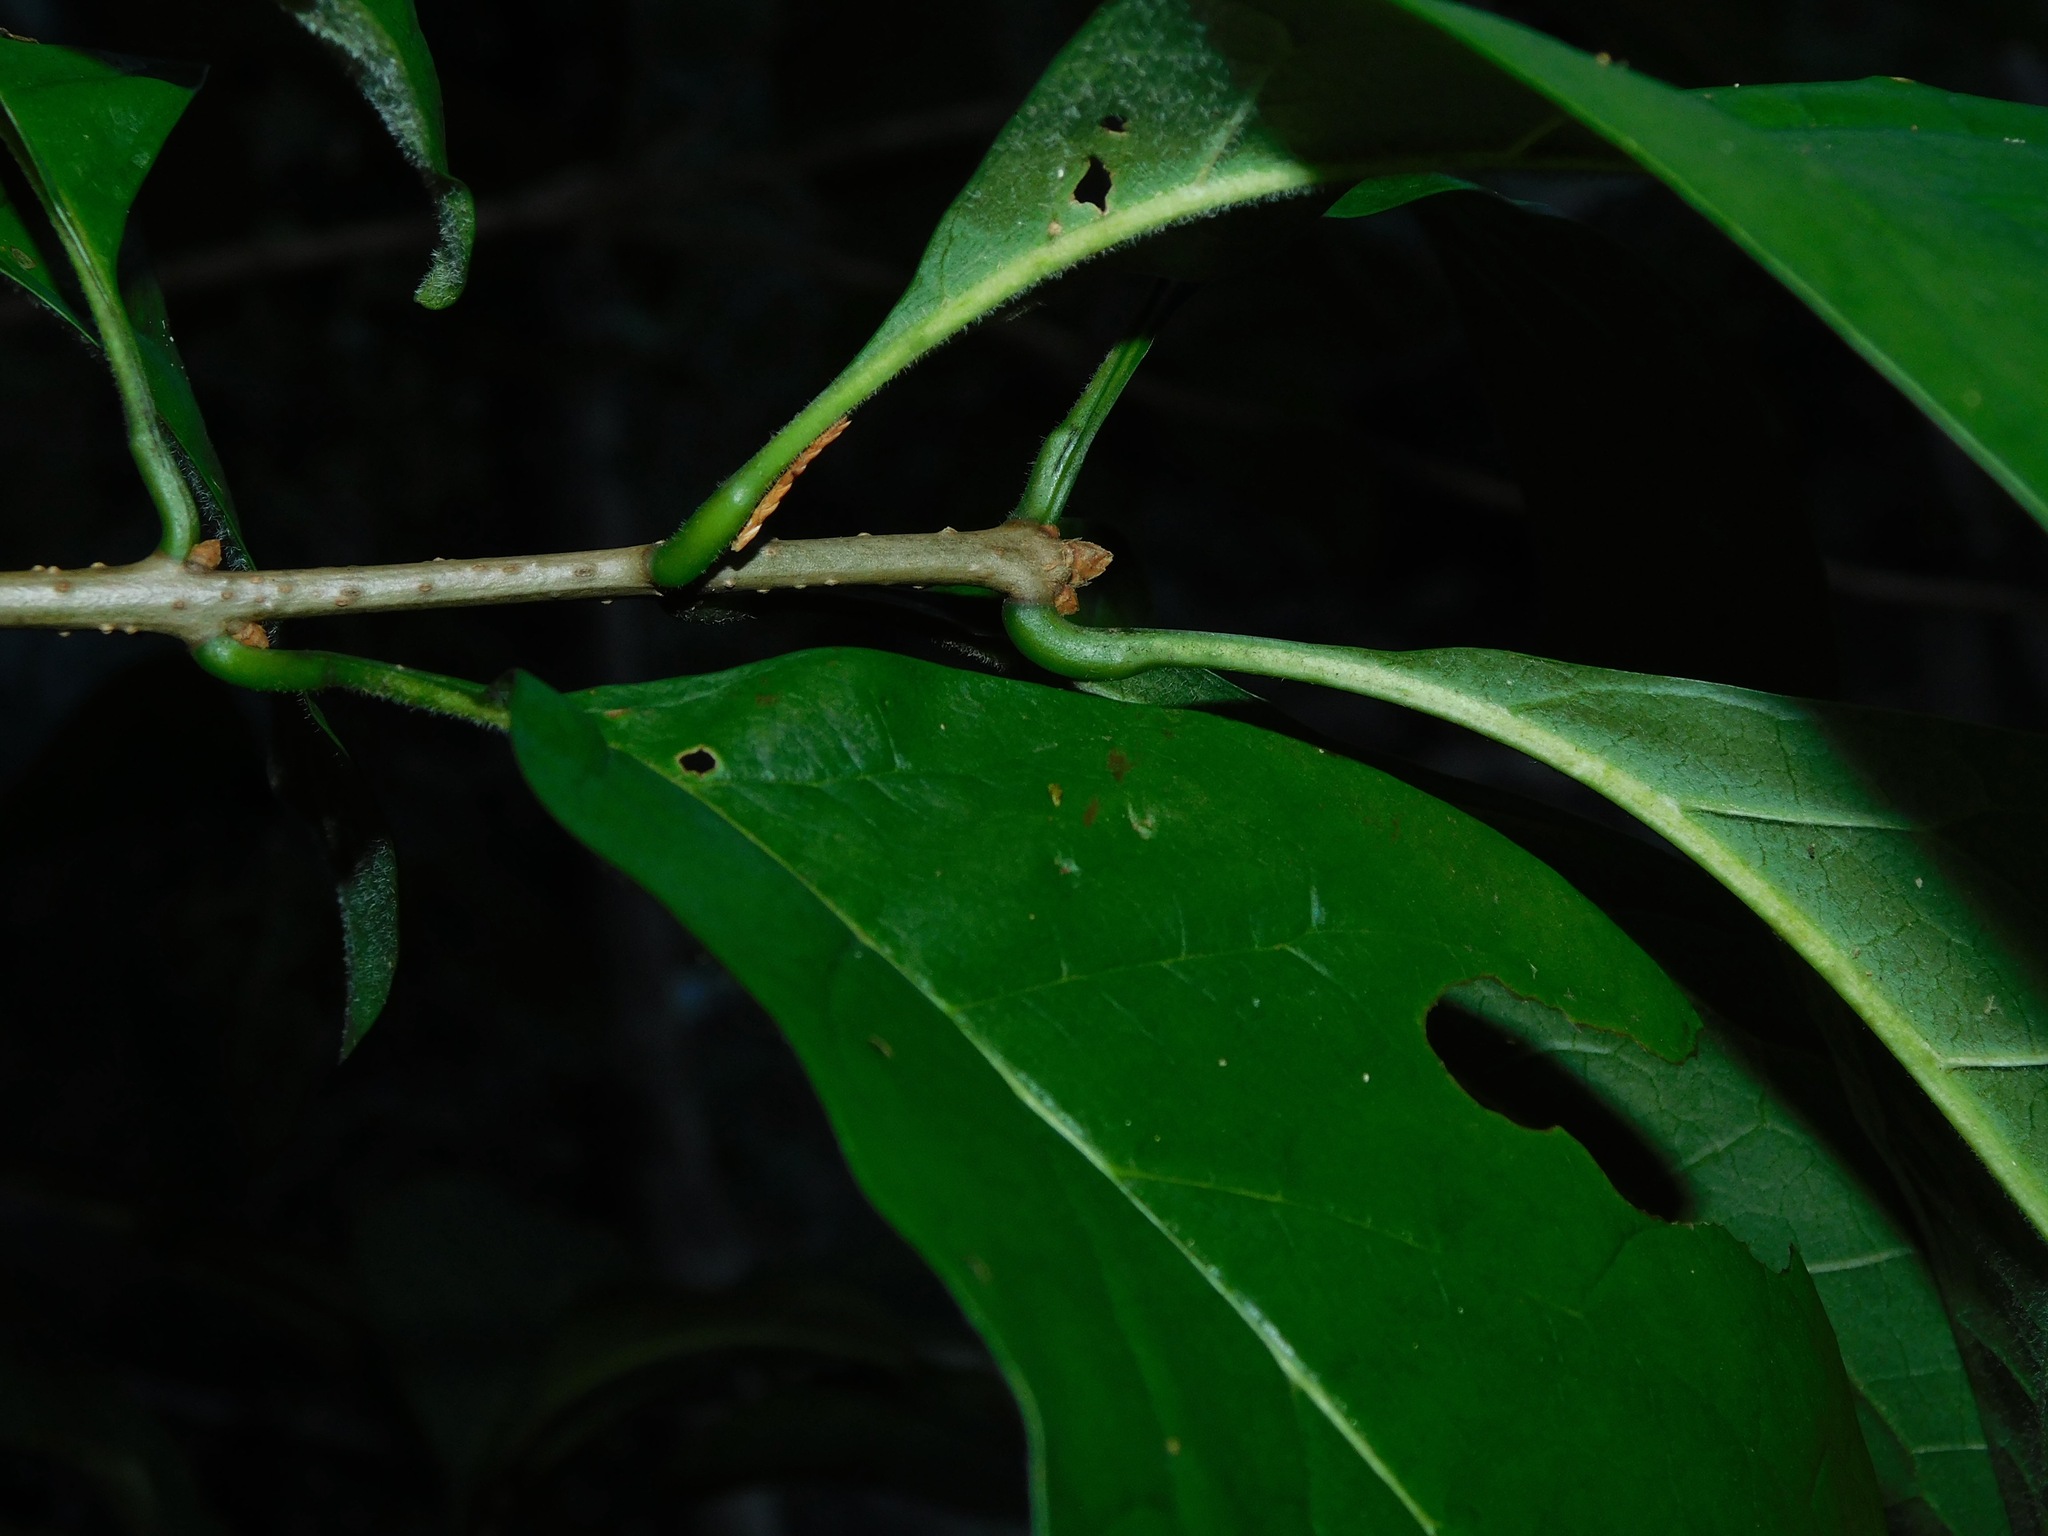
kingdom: Plantae
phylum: Tracheophyta
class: Magnoliopsida
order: Cornales
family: Nyssaceae
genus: Nyssa
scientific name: Nyssa sylvatica
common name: Black tupelo
